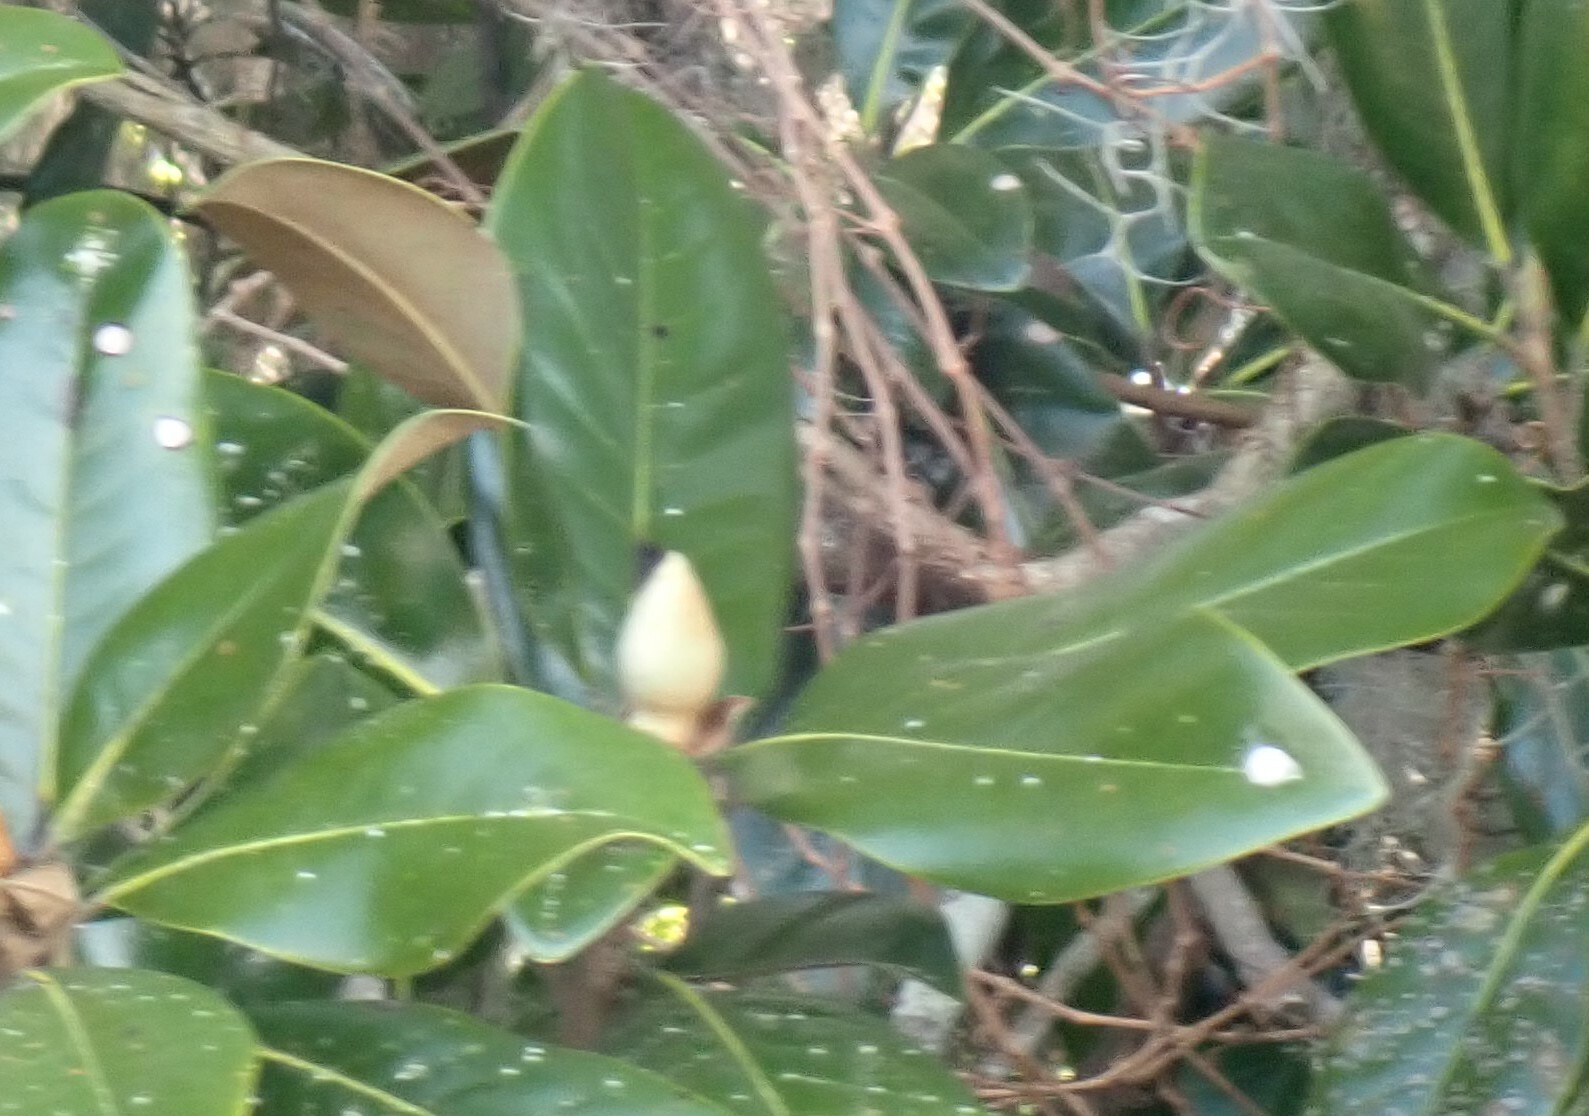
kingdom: Plantae
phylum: Tracheophyta
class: Magnoliopsida
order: Magnoliales
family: Magnoliaceae
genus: Magnolia
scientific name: Magnolia grandiflora
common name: Southern magnolia
